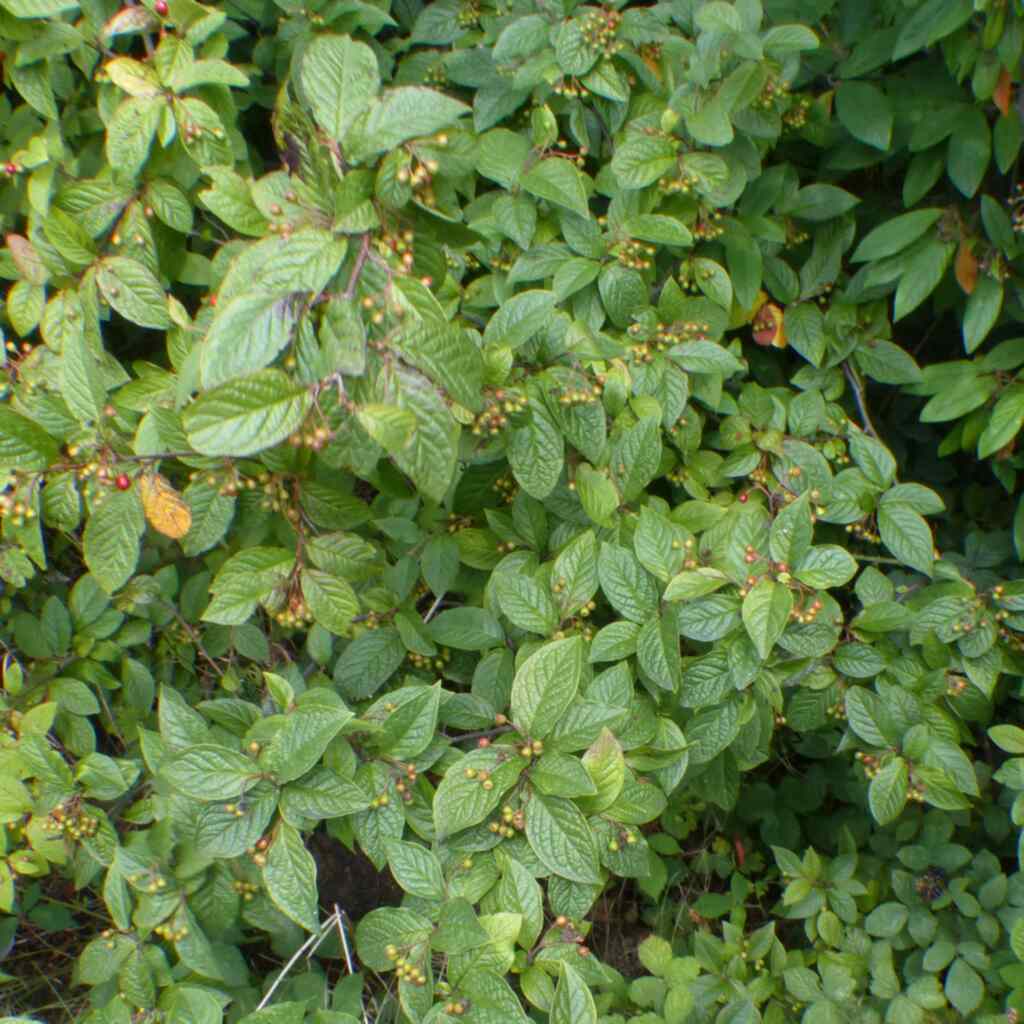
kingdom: Plantae
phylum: Tracheophyta
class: Magnoliopsida
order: Rosales
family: Rosaceae
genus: Cotoneaster
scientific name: Cotoneaster bullatus
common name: Hollyberry cotoneaster
